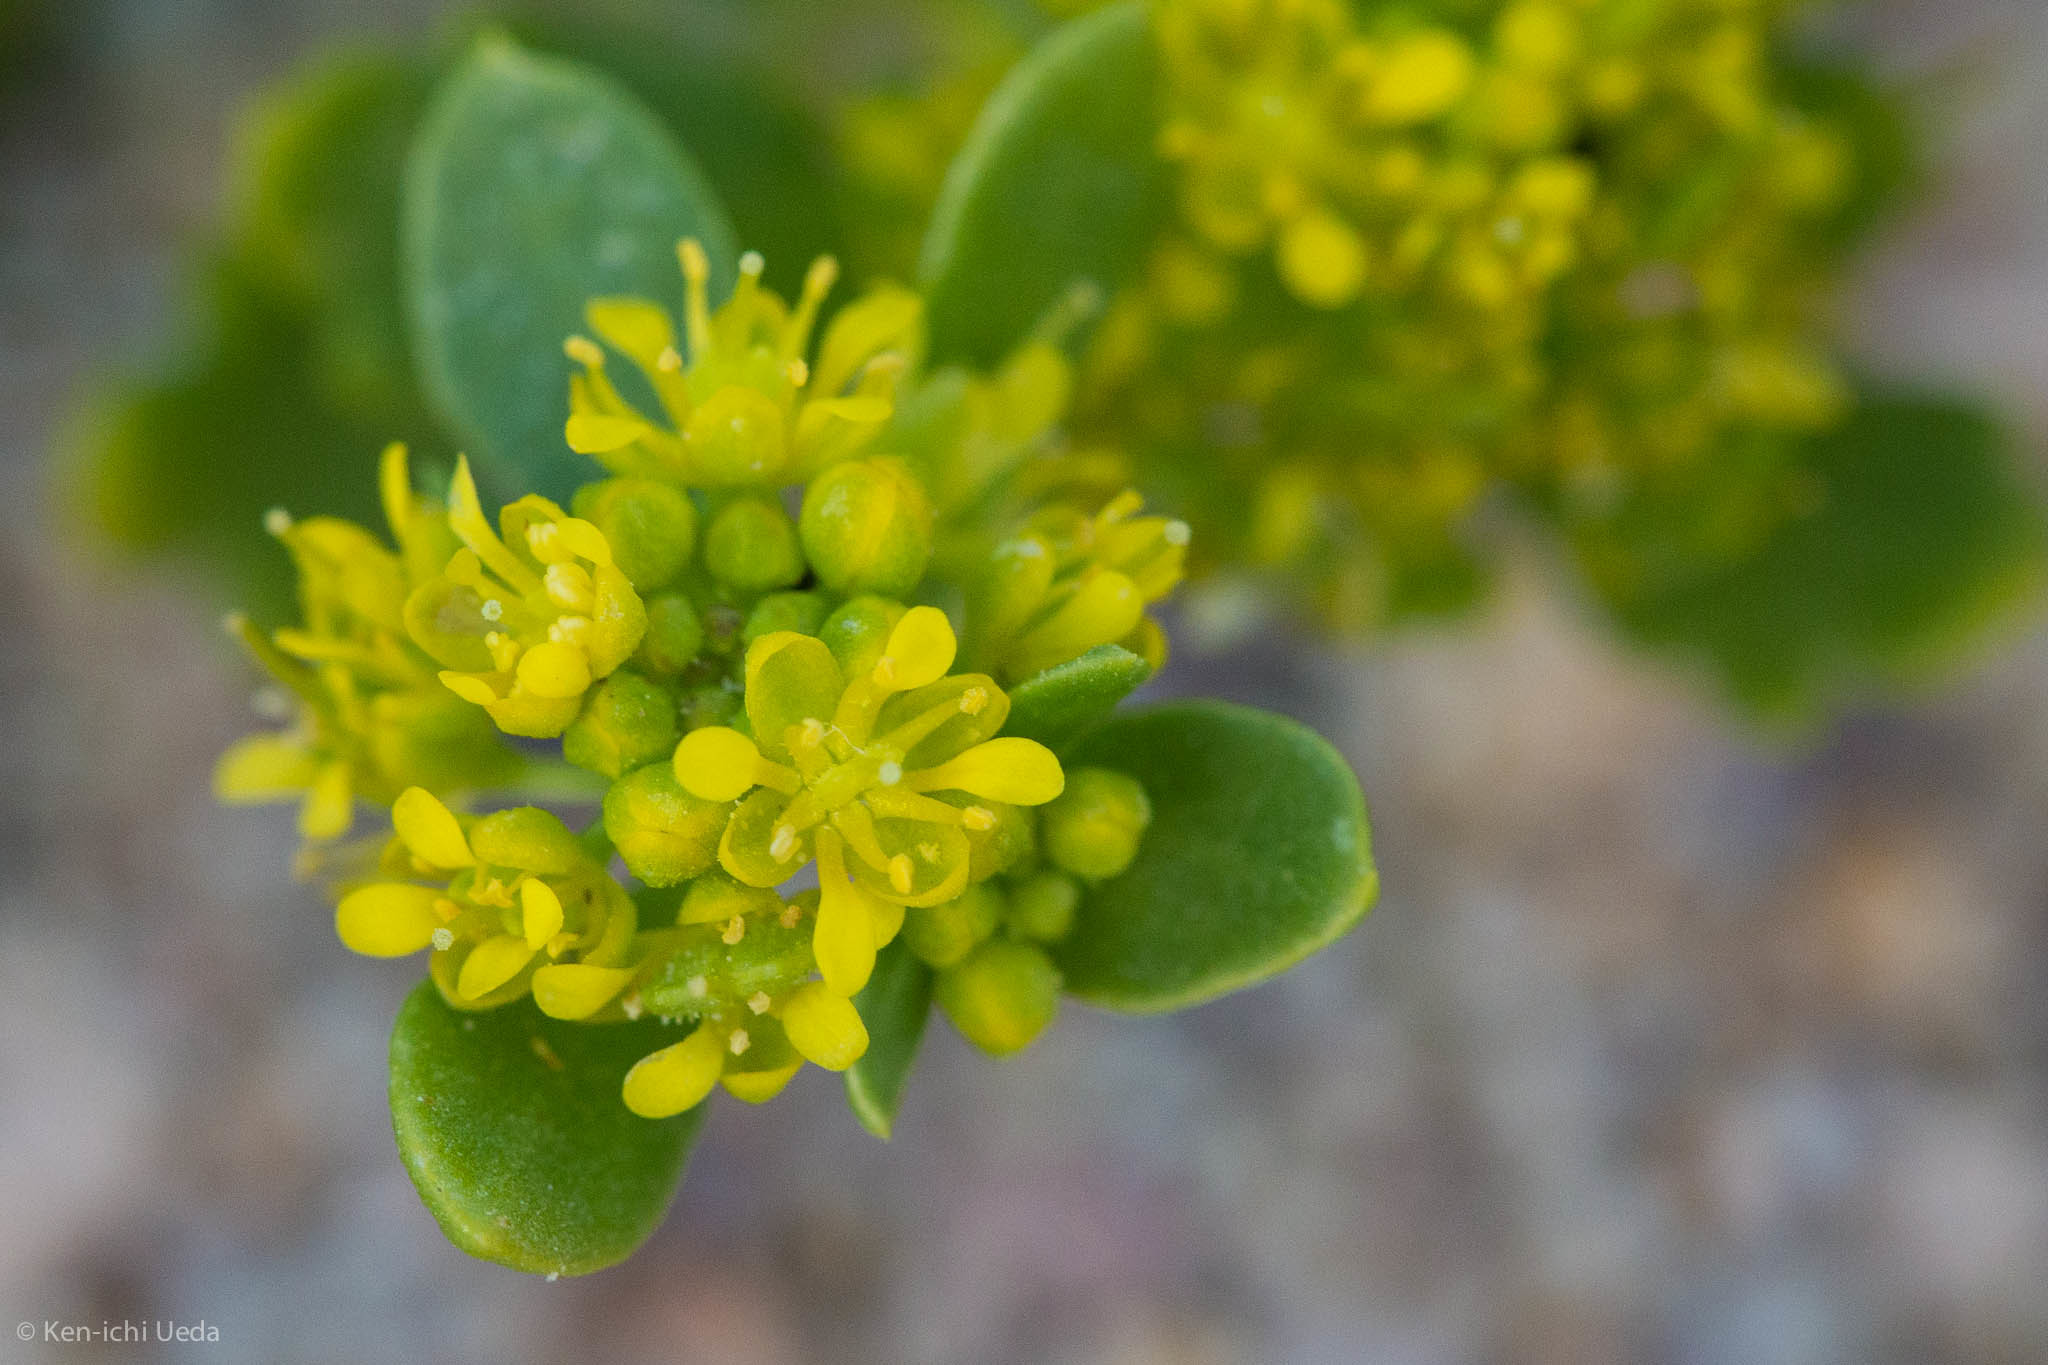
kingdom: Plantae
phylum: Tracheophyta
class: Magnoliopsida
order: Brassicales
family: Brassicaceae
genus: Lepidium
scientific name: Lepidium flavum
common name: Yellow pepperwort
